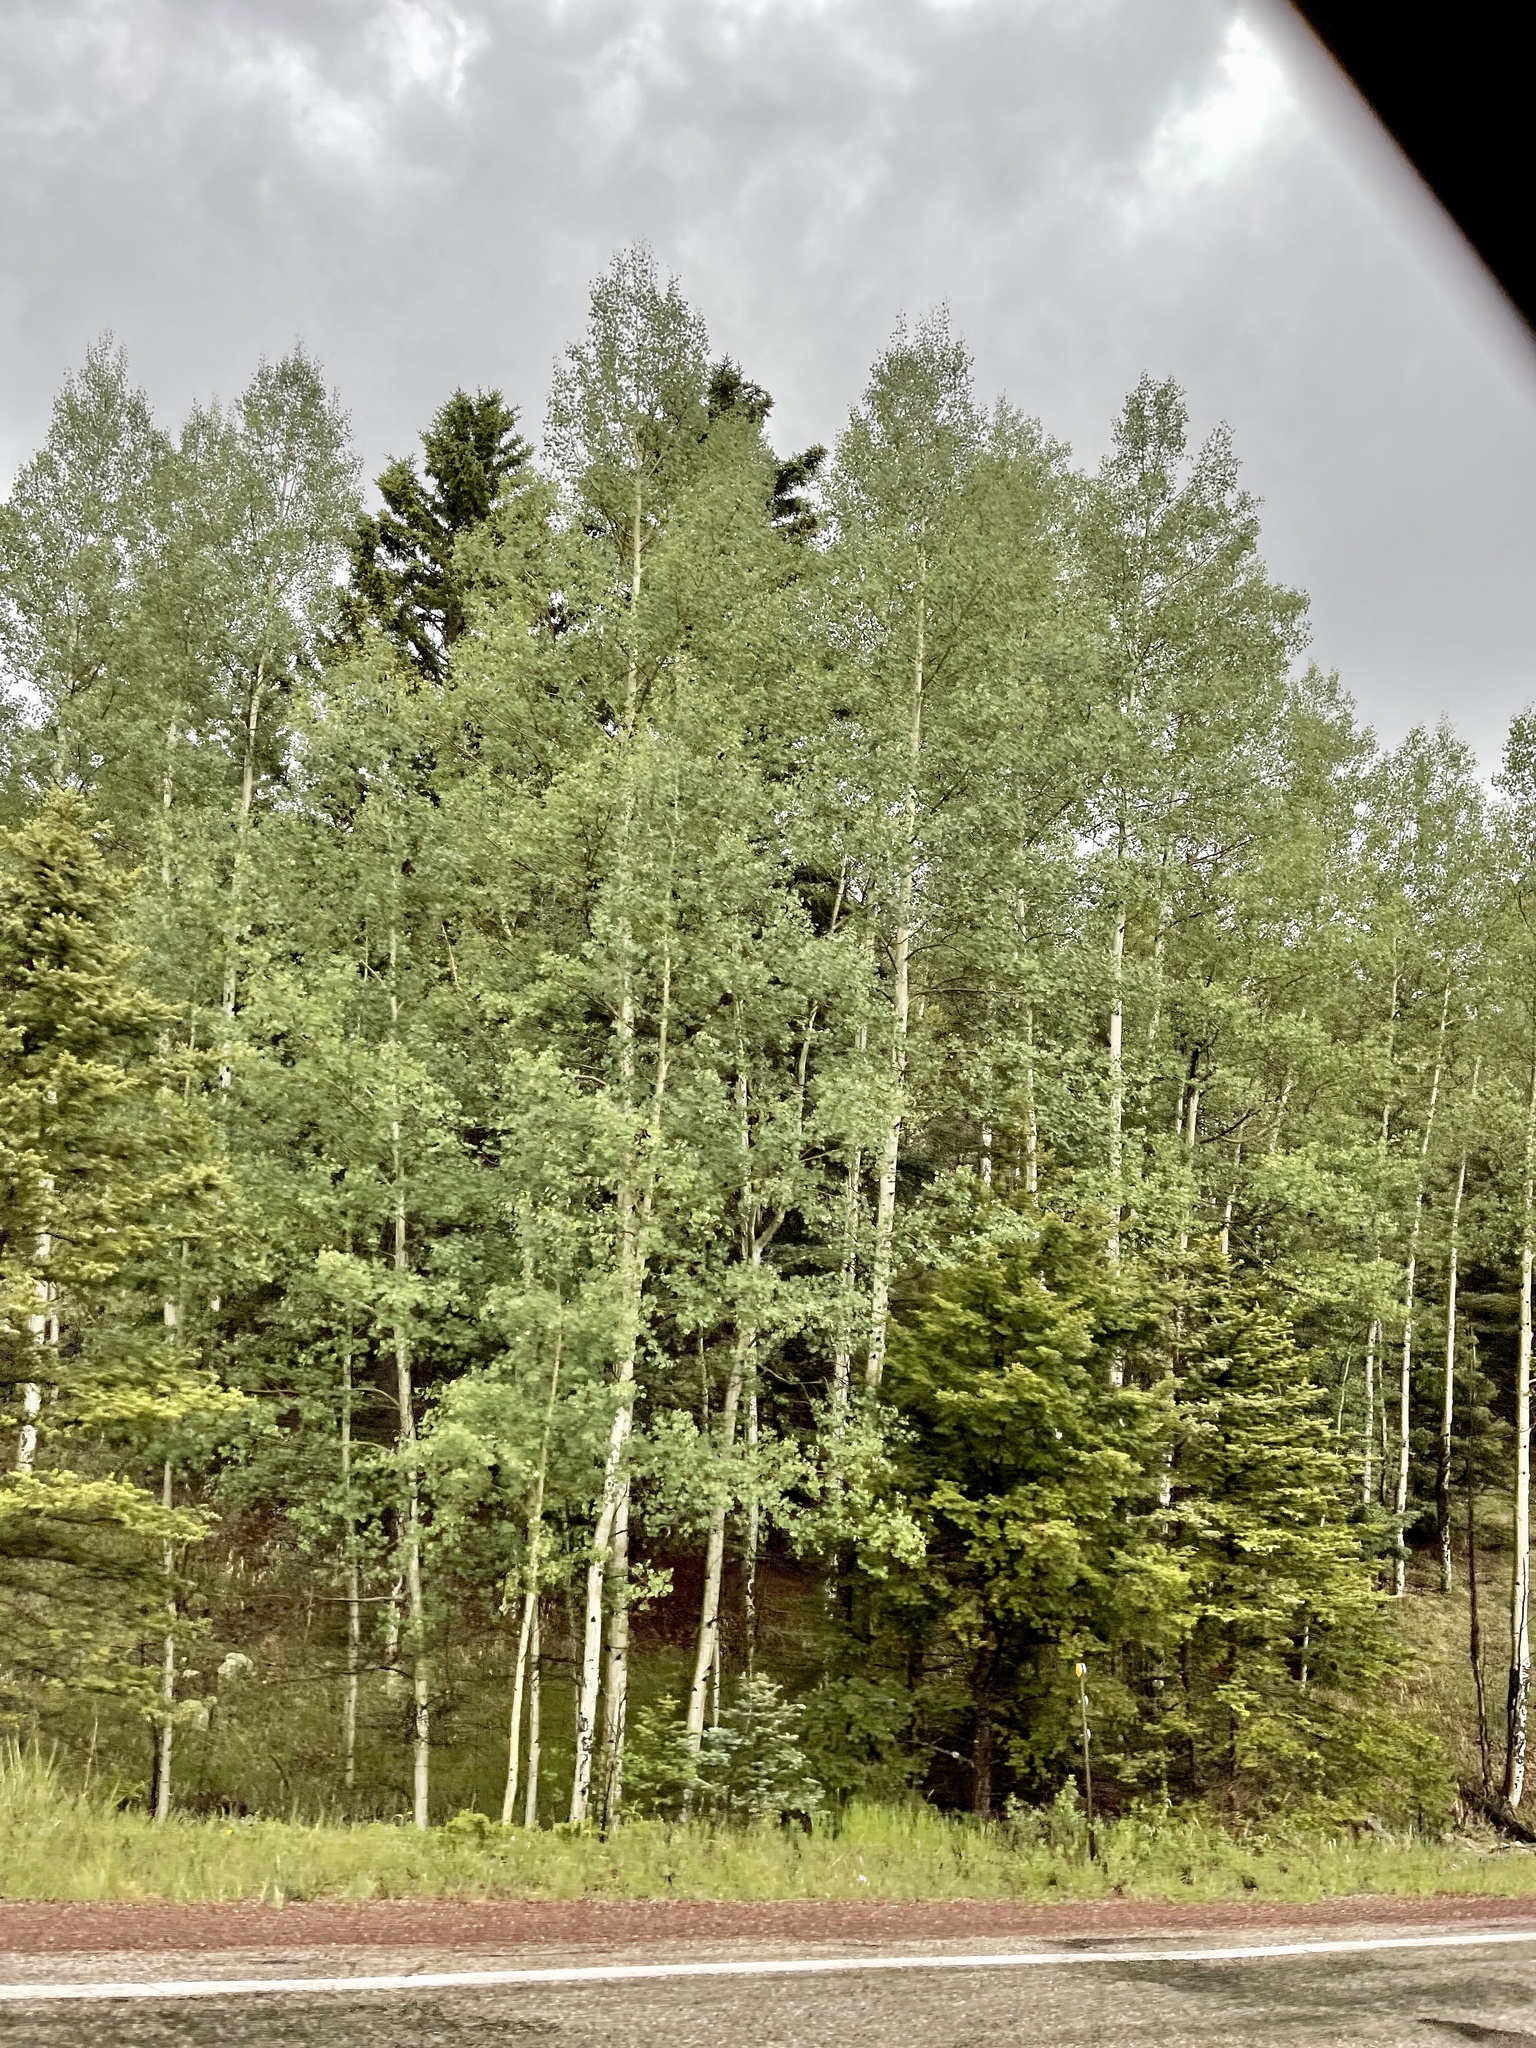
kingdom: Plantae
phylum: Tracheophyta
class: Magnoliopsida
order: Malpighiales
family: Salicaceae
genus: Populus
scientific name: Populus tremuloides
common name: Quaking aspen
